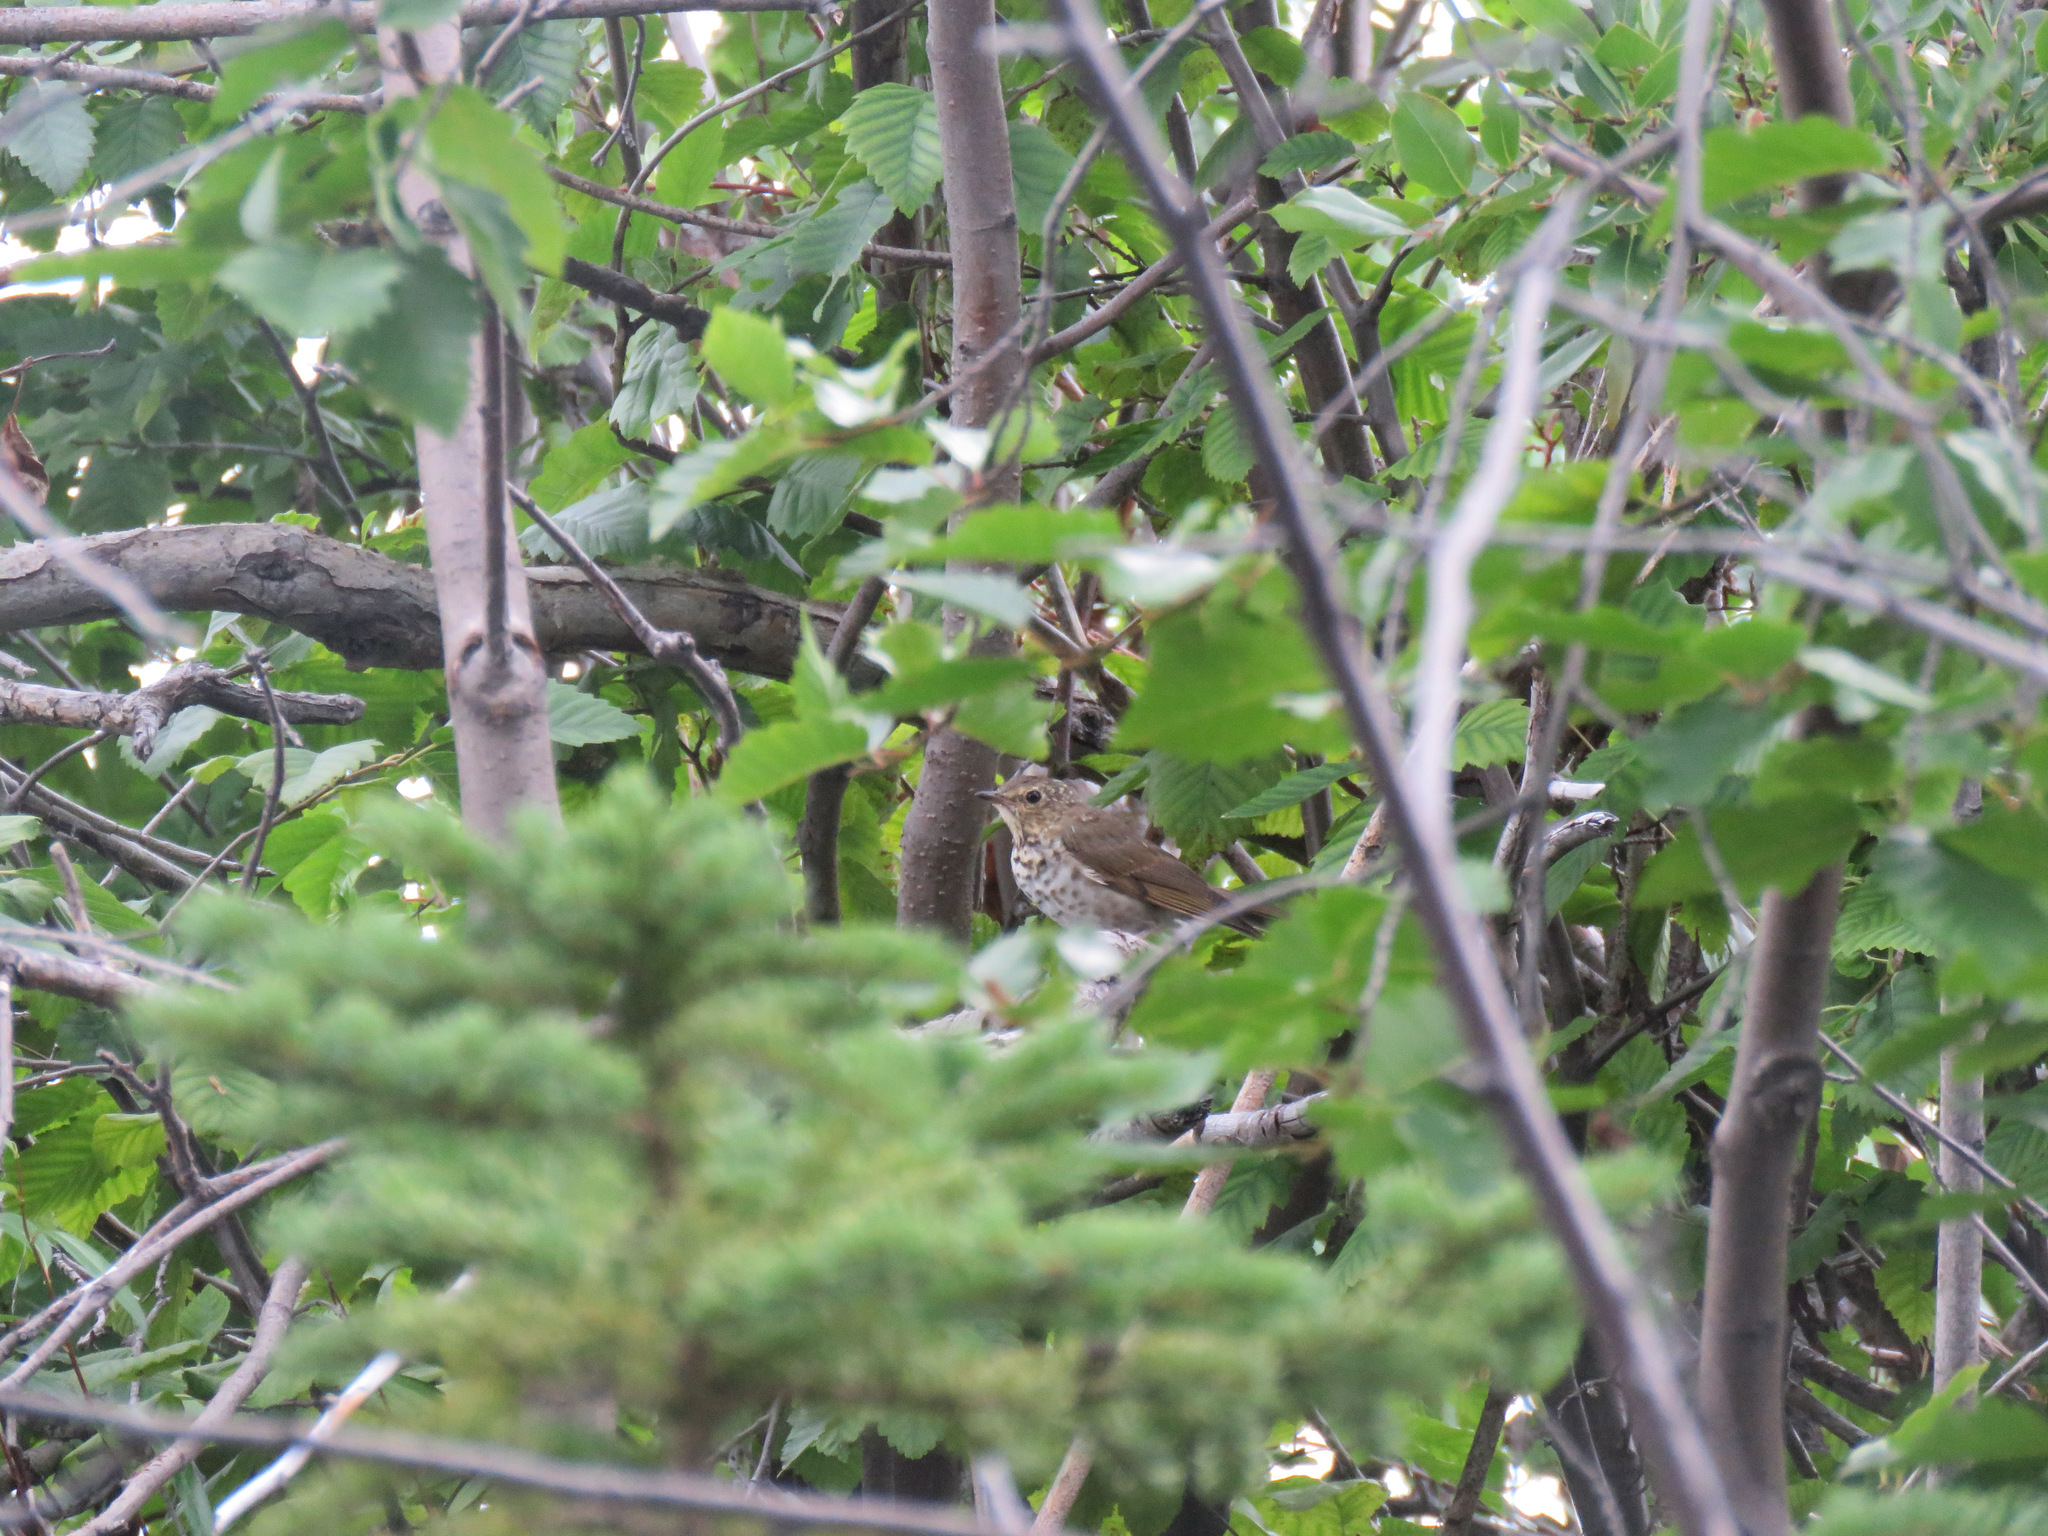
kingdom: Animalia
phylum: Chordata
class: Aves
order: Passeriformes
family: Turdidae
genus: Catharus
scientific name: Catharus ustulatus
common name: Swainson's thrush
